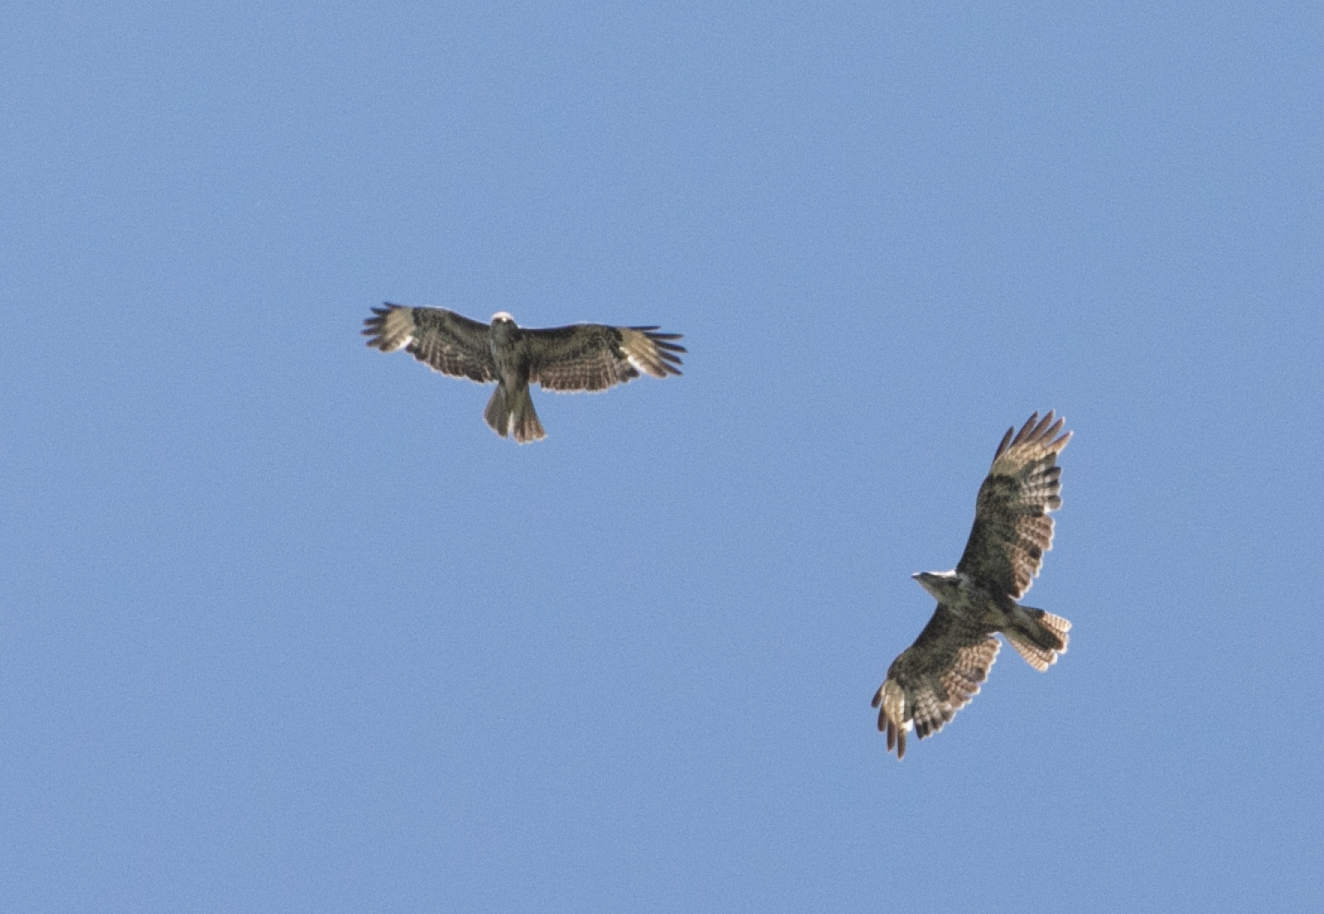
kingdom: Animalia
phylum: Chordata
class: Aves
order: Accipitriformes
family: Accipitridae
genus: Buteo
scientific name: Buteo buteo
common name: Common buzzard
